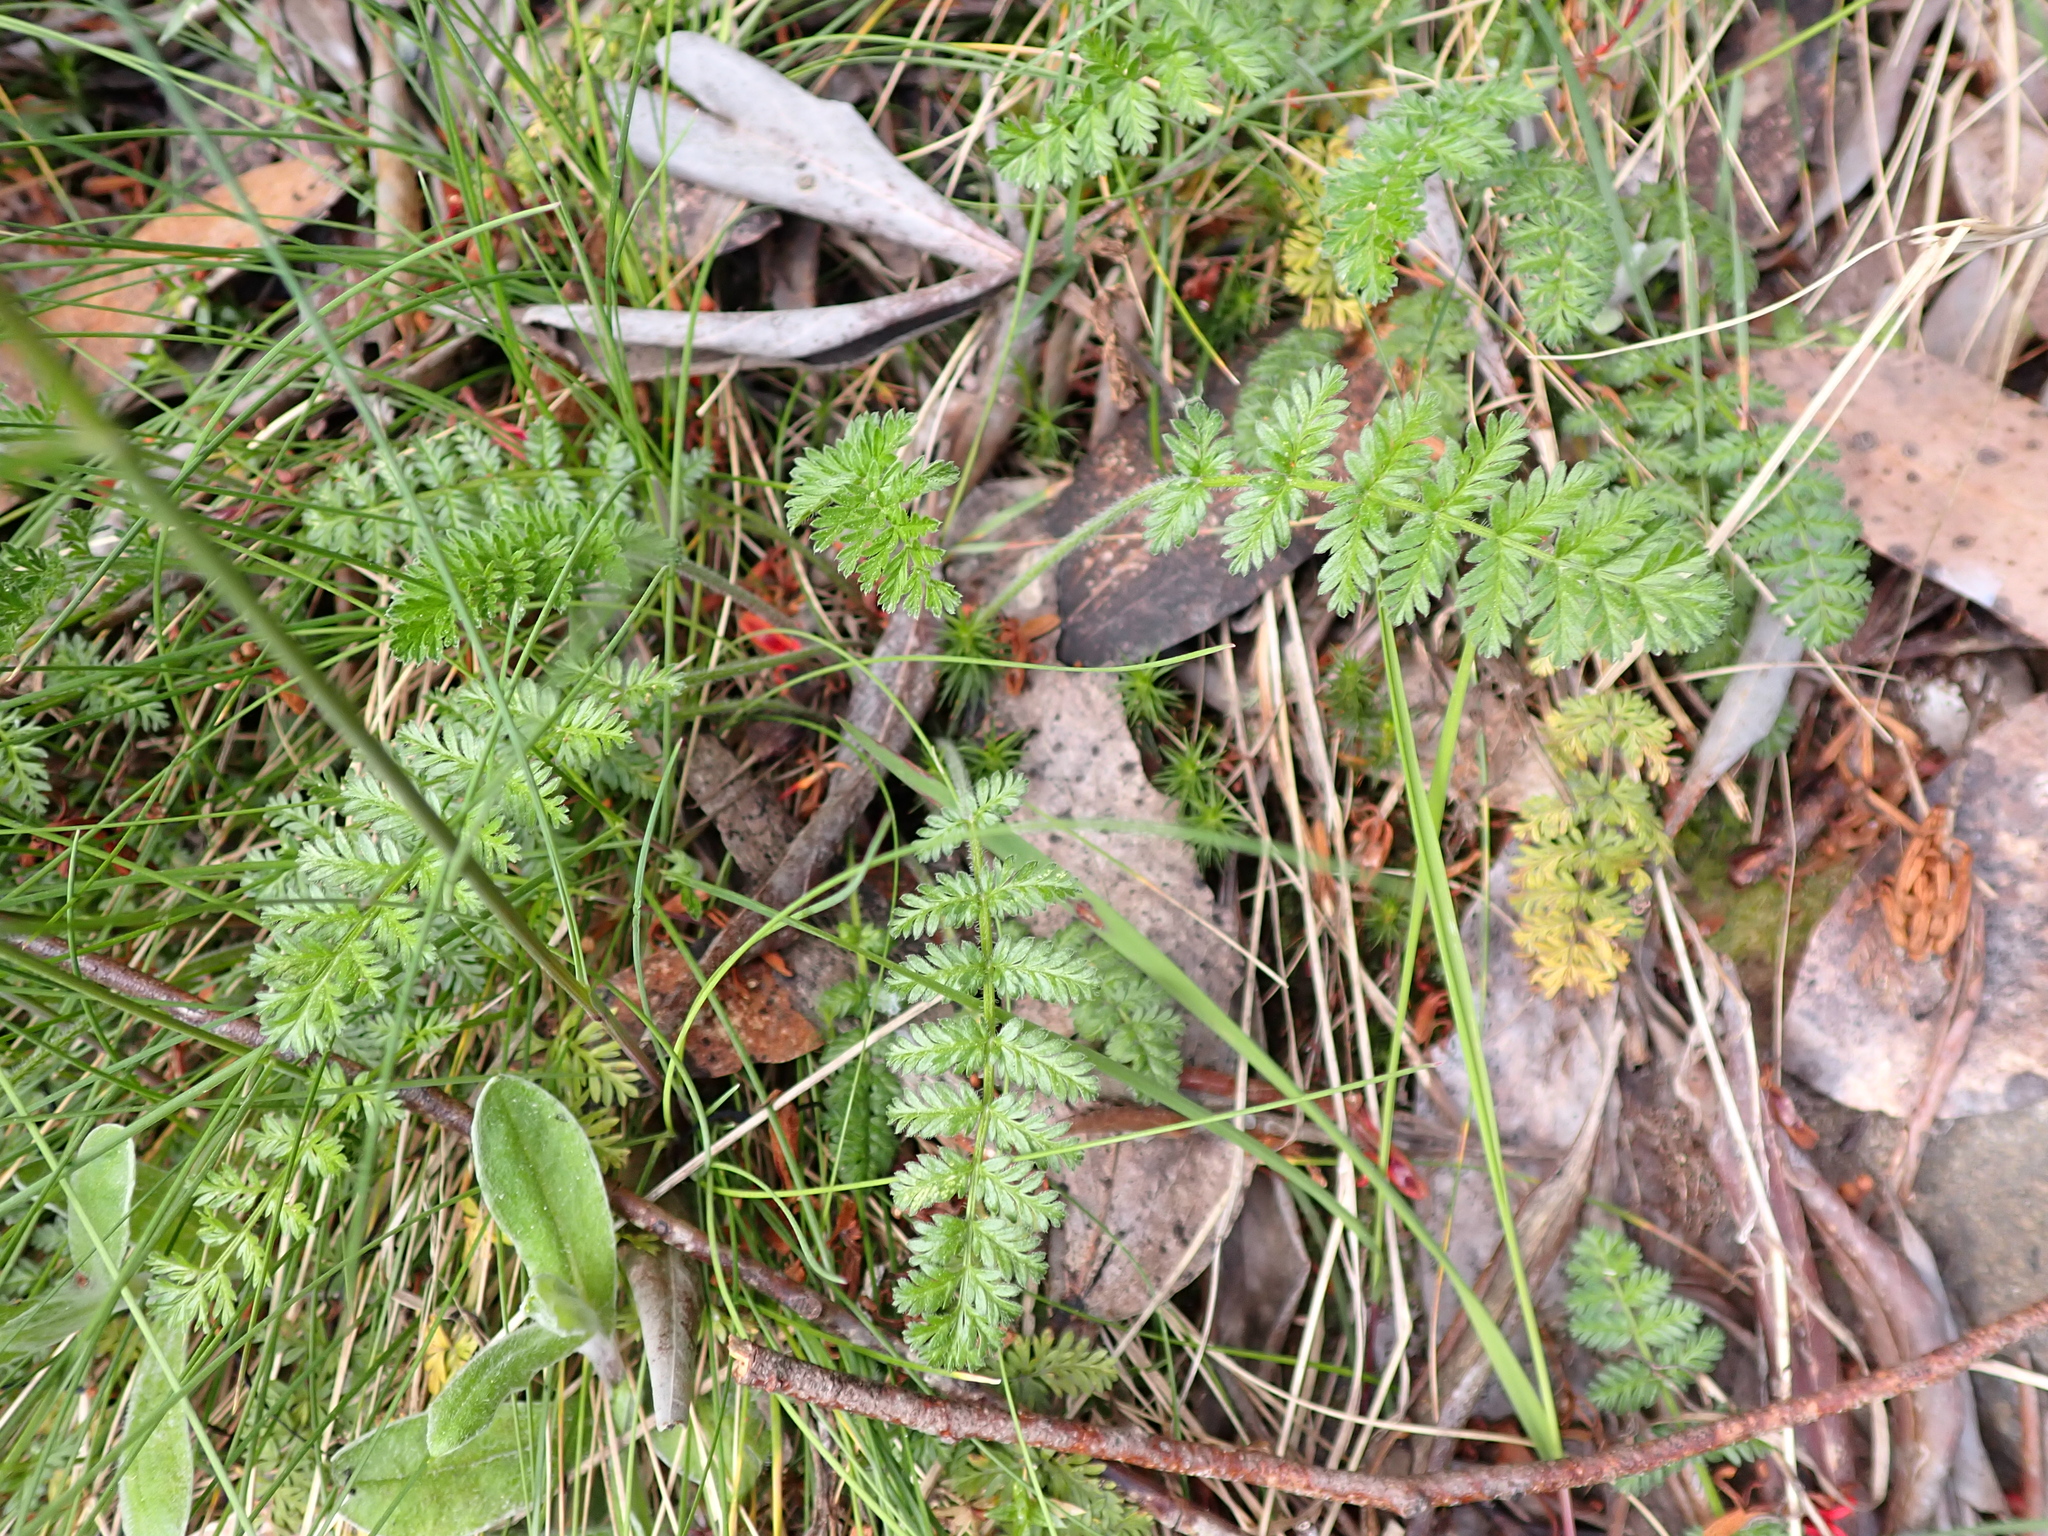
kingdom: Plantae
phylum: Tracheophyta
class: Magnoliopsida
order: Apiales
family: Apiaceae
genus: Chaerophyllum
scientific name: Chaerophyllum eriopodum
